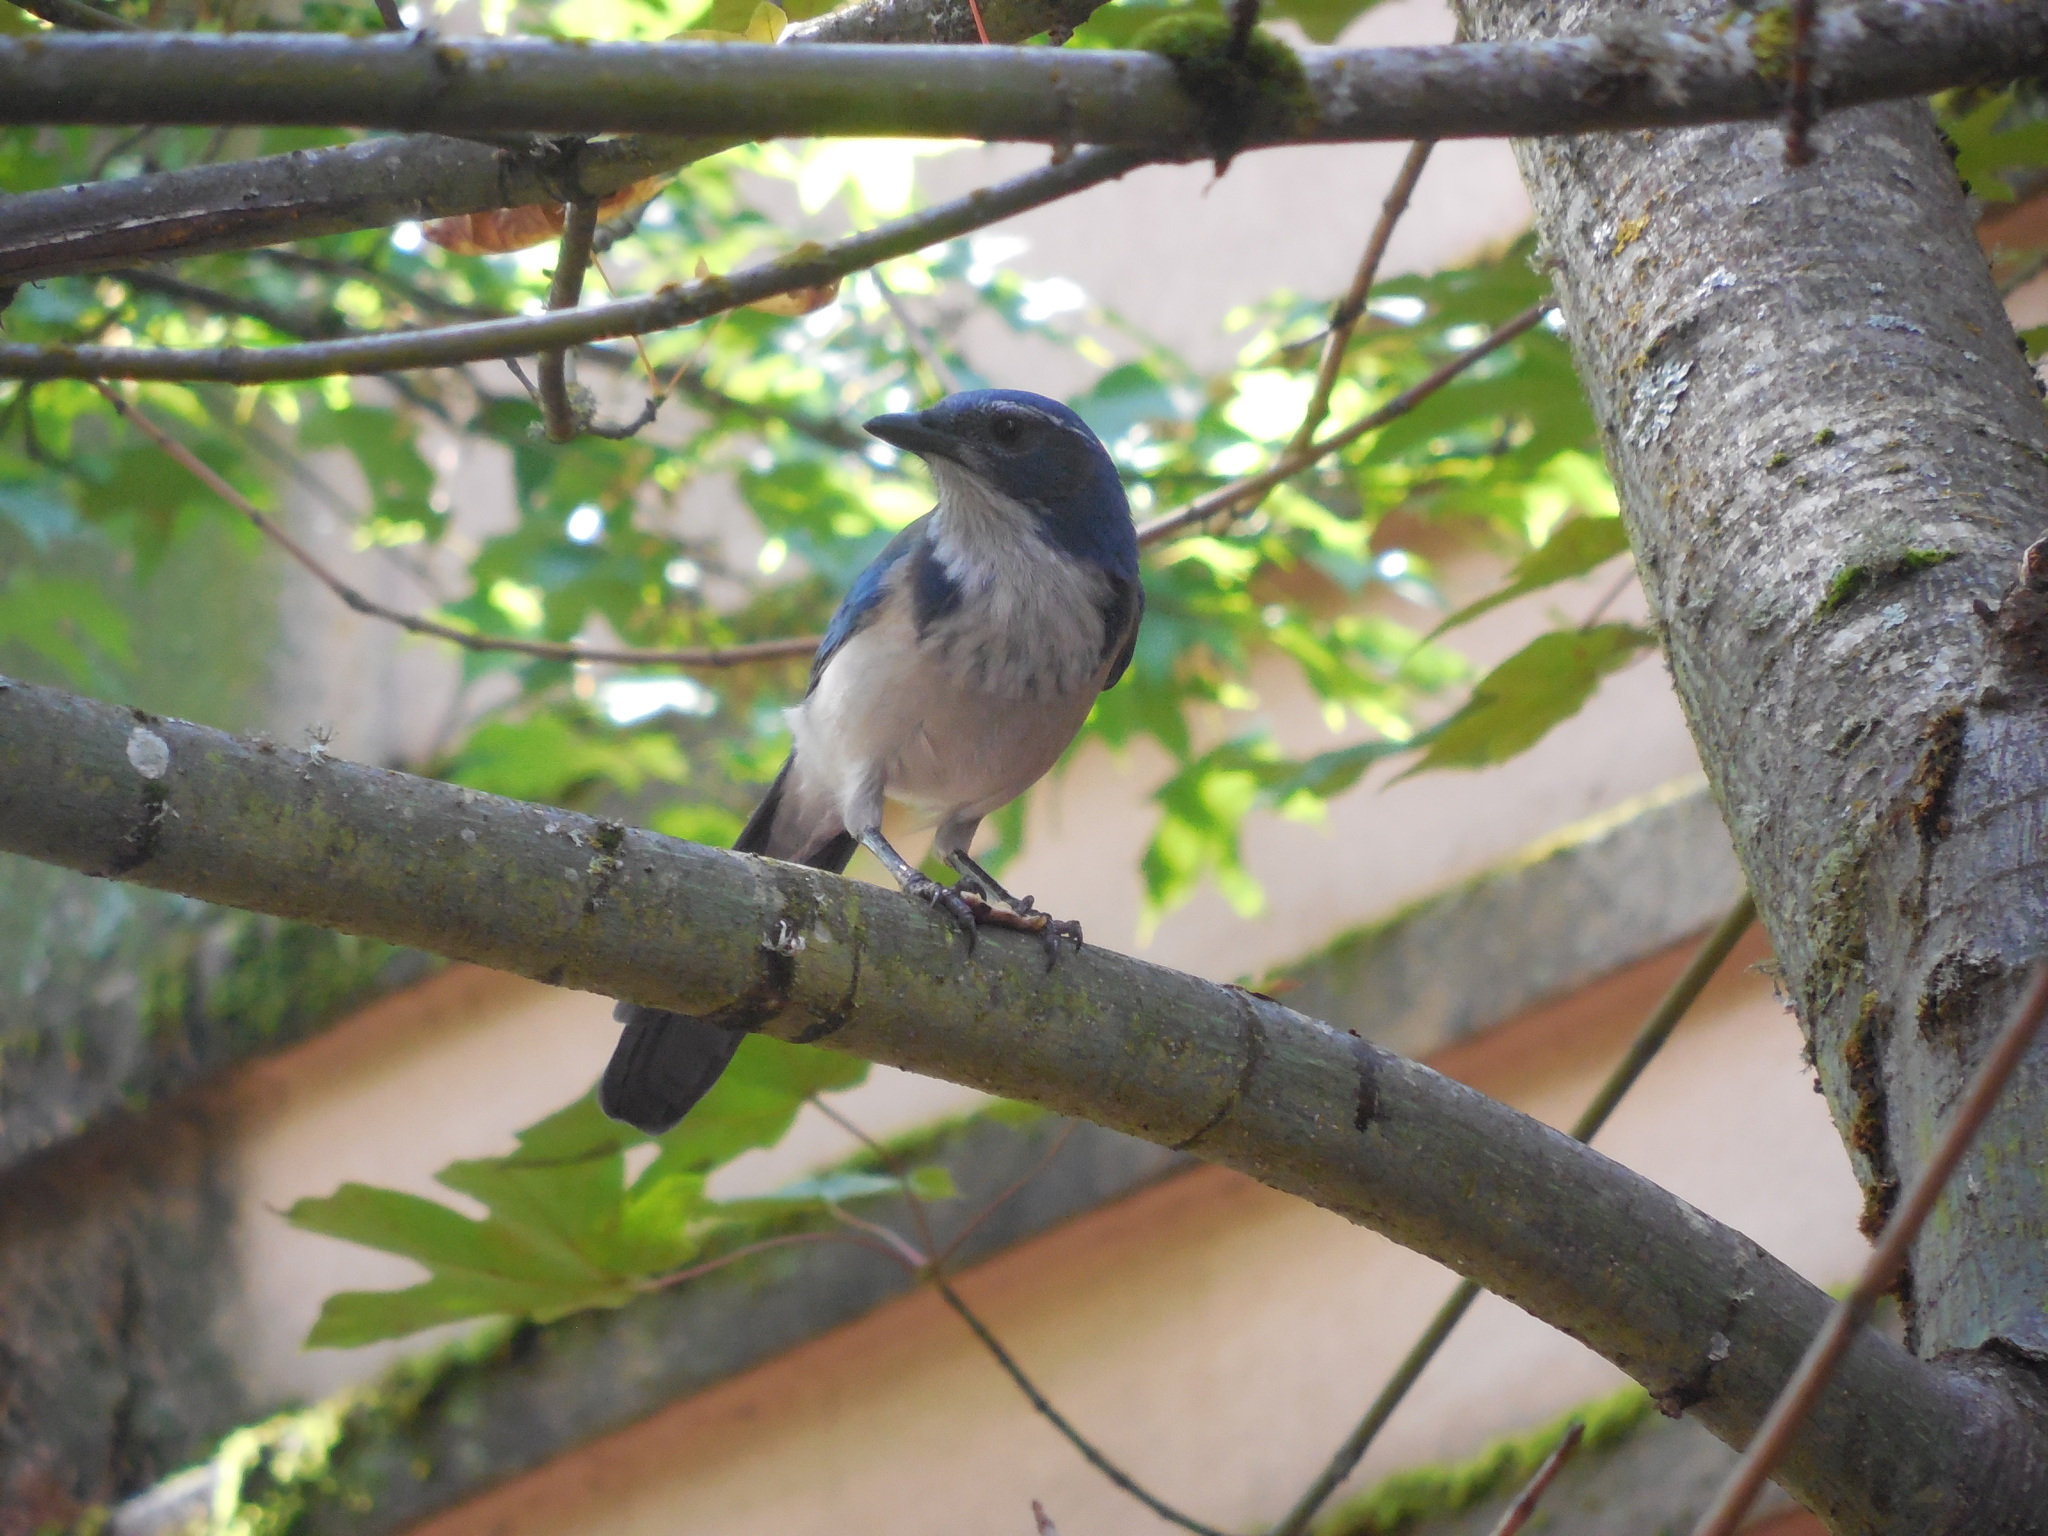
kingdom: Animalia
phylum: Chordata
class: Aves
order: Passeriformes
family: Corvidae
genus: Aphelocoma
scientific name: Aphelocoma californica
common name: California scrub-jay
